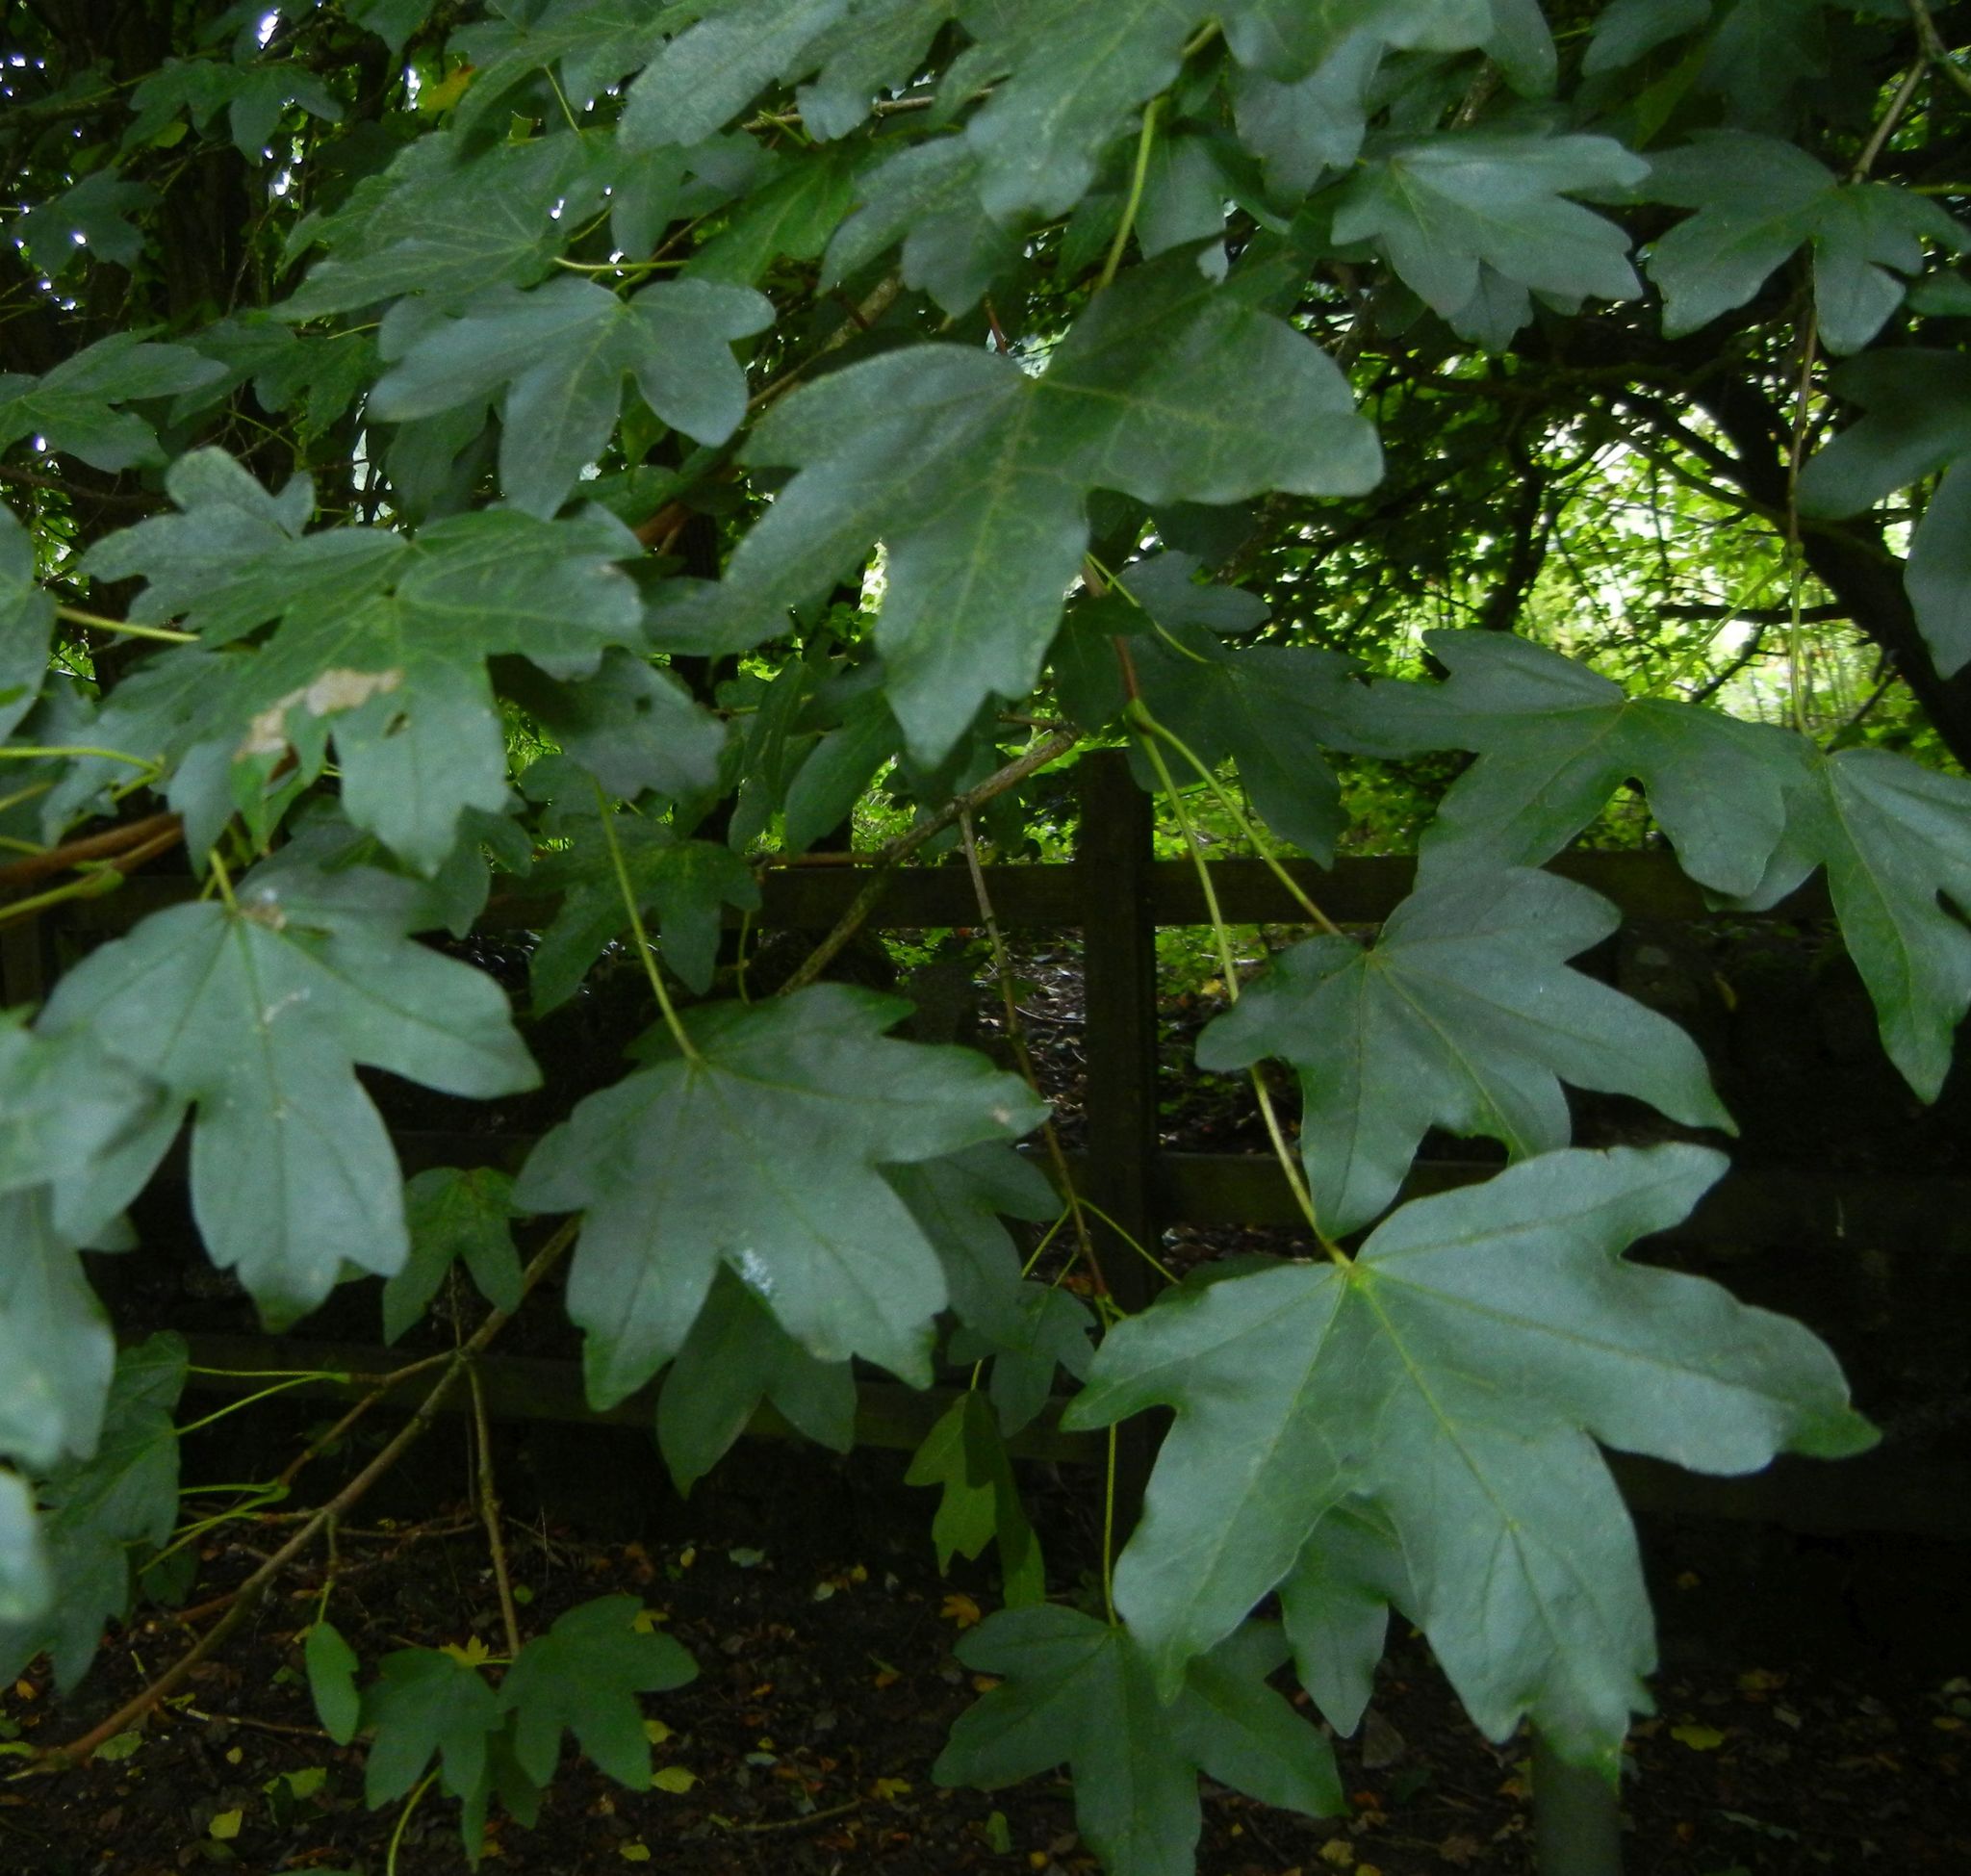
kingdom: Plantae
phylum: Tracheophyta
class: Magnoliopsida
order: Sapindales
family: Sapindaceae
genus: Acer
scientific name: Acer campestre
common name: Field maple
